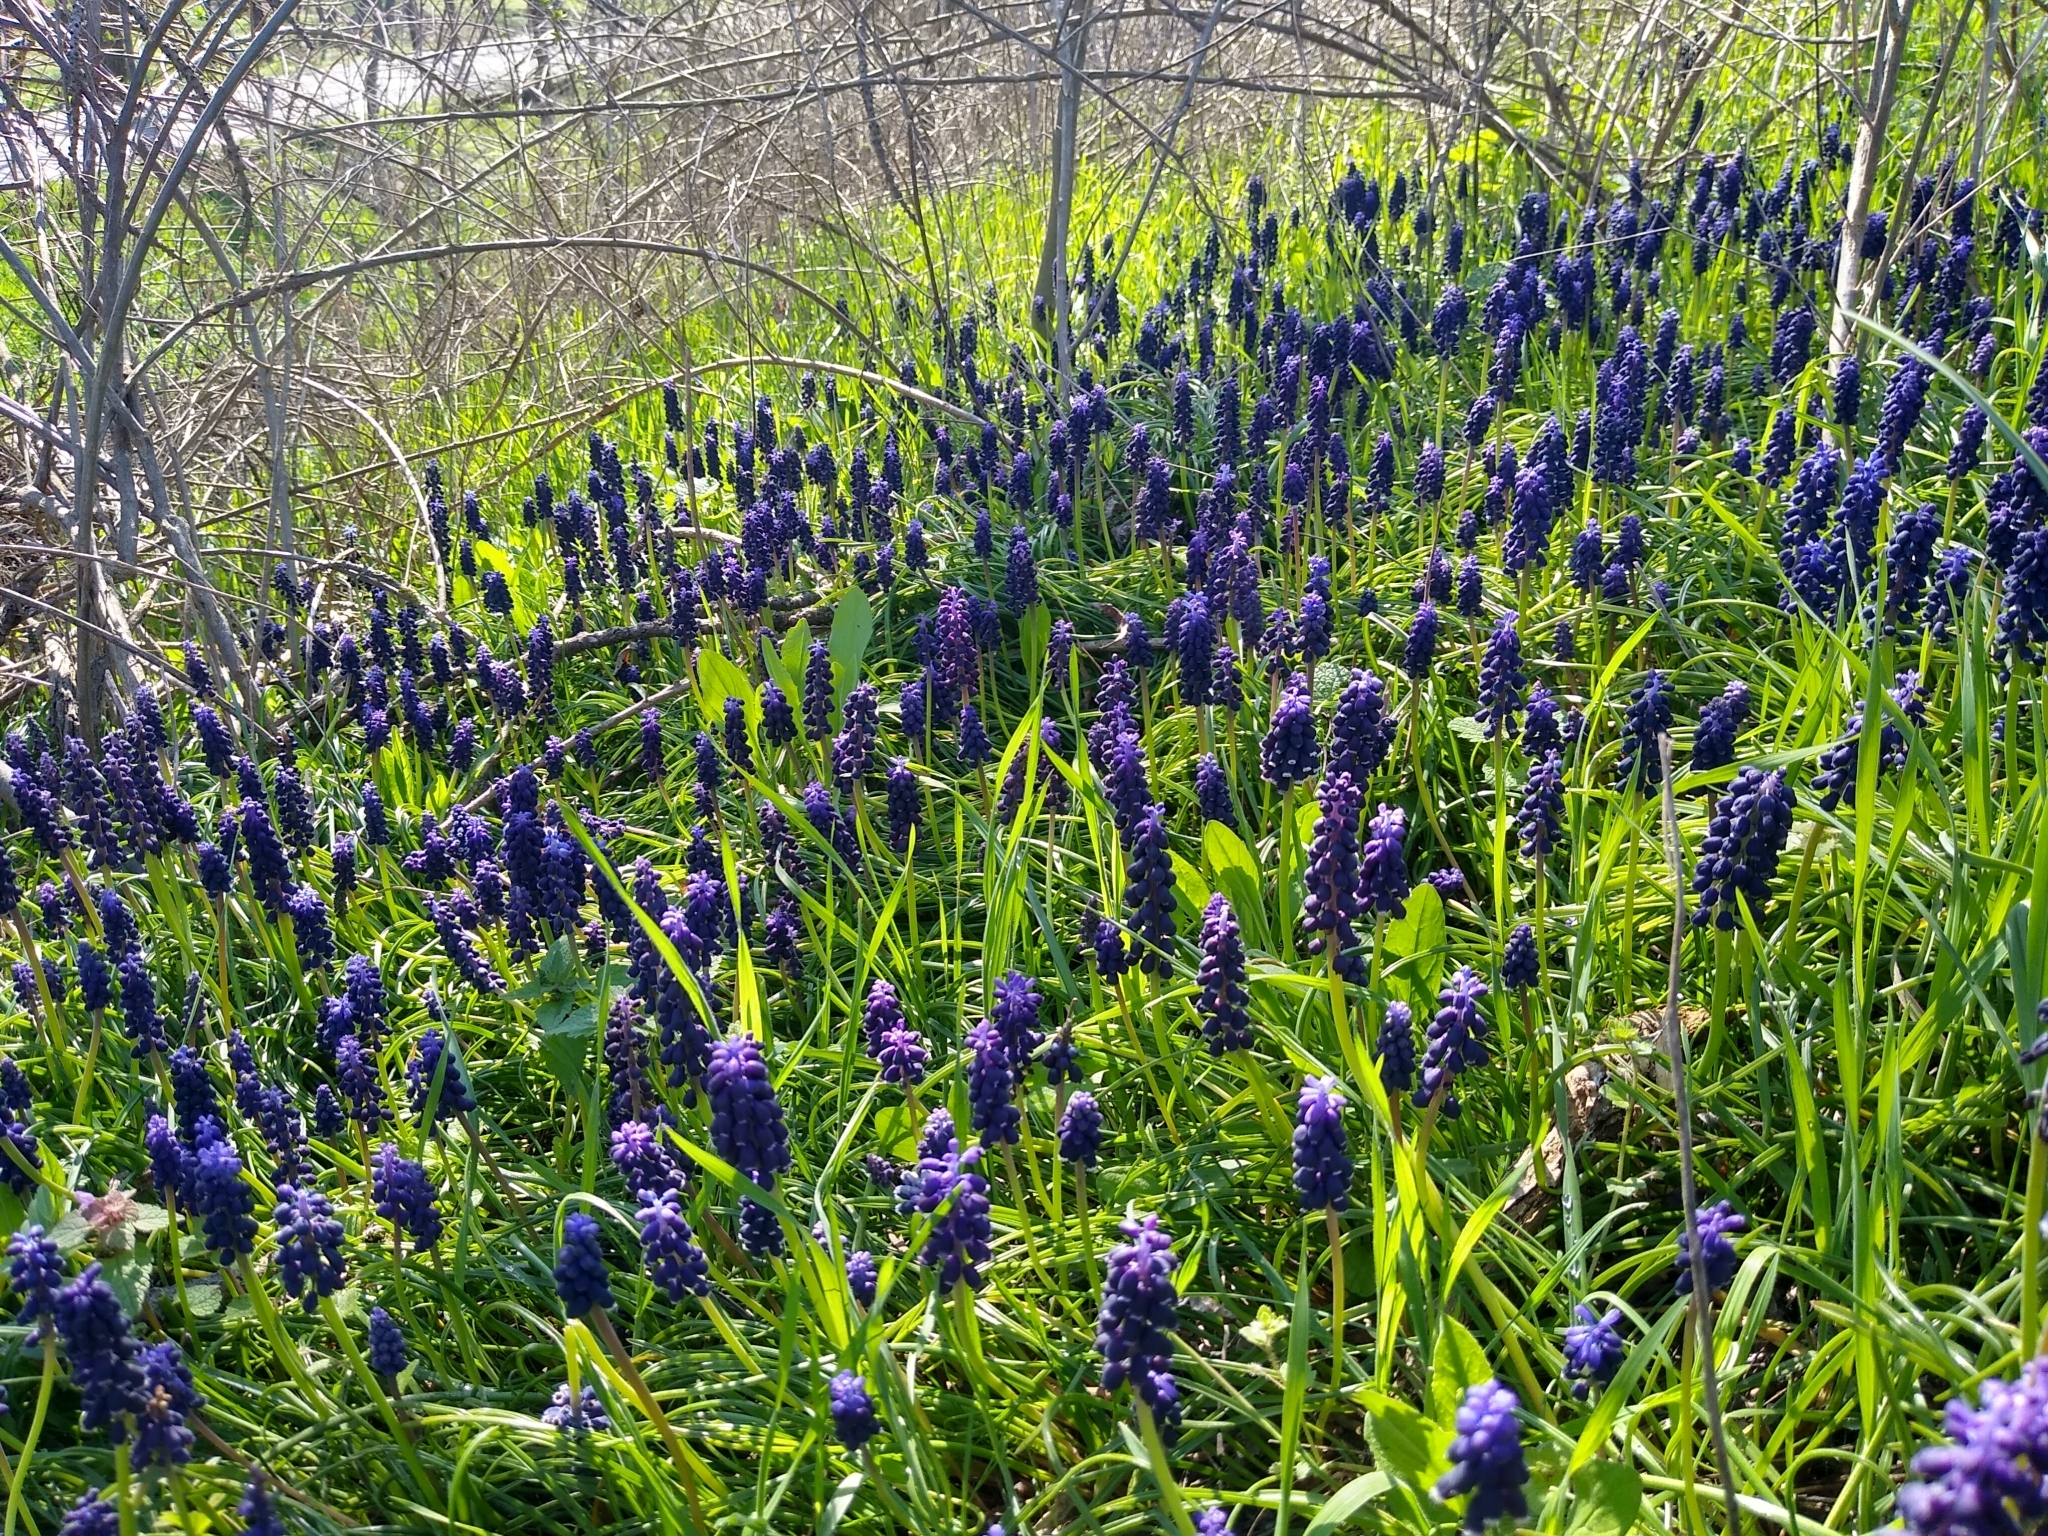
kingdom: Plantae
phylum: Tracheophyta
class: Liliopsida
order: Asparagales
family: Asparagaceae
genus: Muscari
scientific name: Muscari neglectum
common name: Grape-hyacinth
